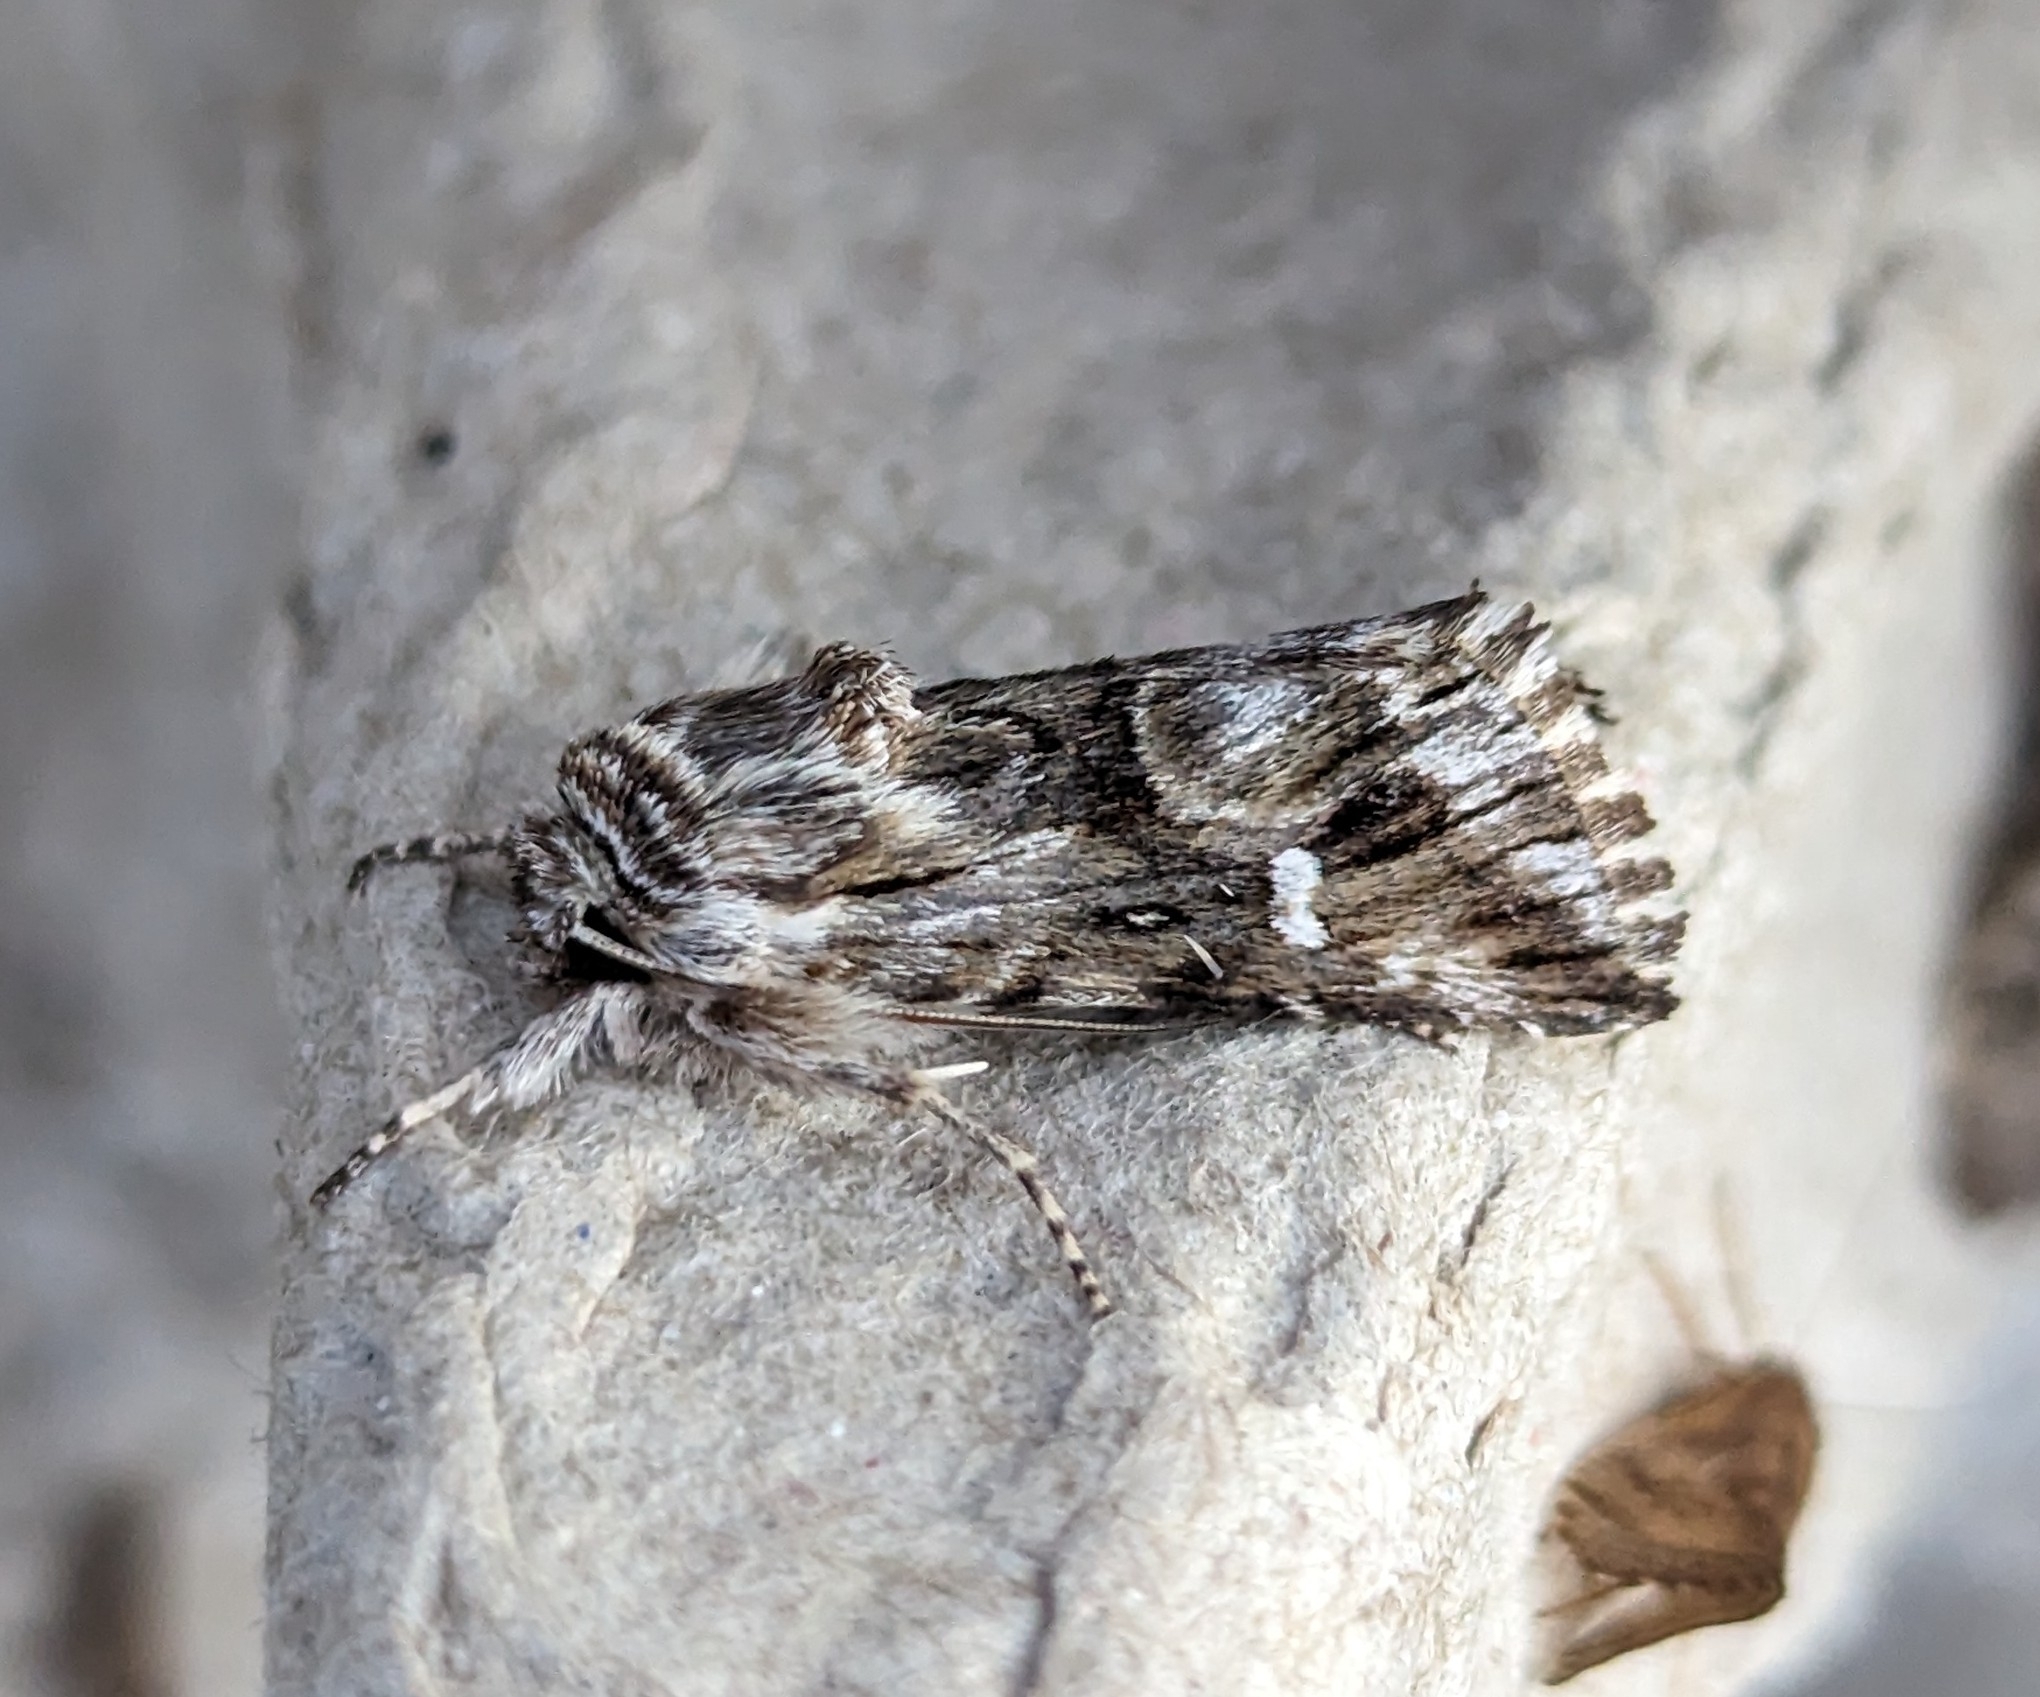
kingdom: Animalia
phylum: Arthropoda
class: Insecta
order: Lepidoptera
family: Noctuidae
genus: Calophasia
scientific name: Calophasia lunula
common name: Toadflax brocade
